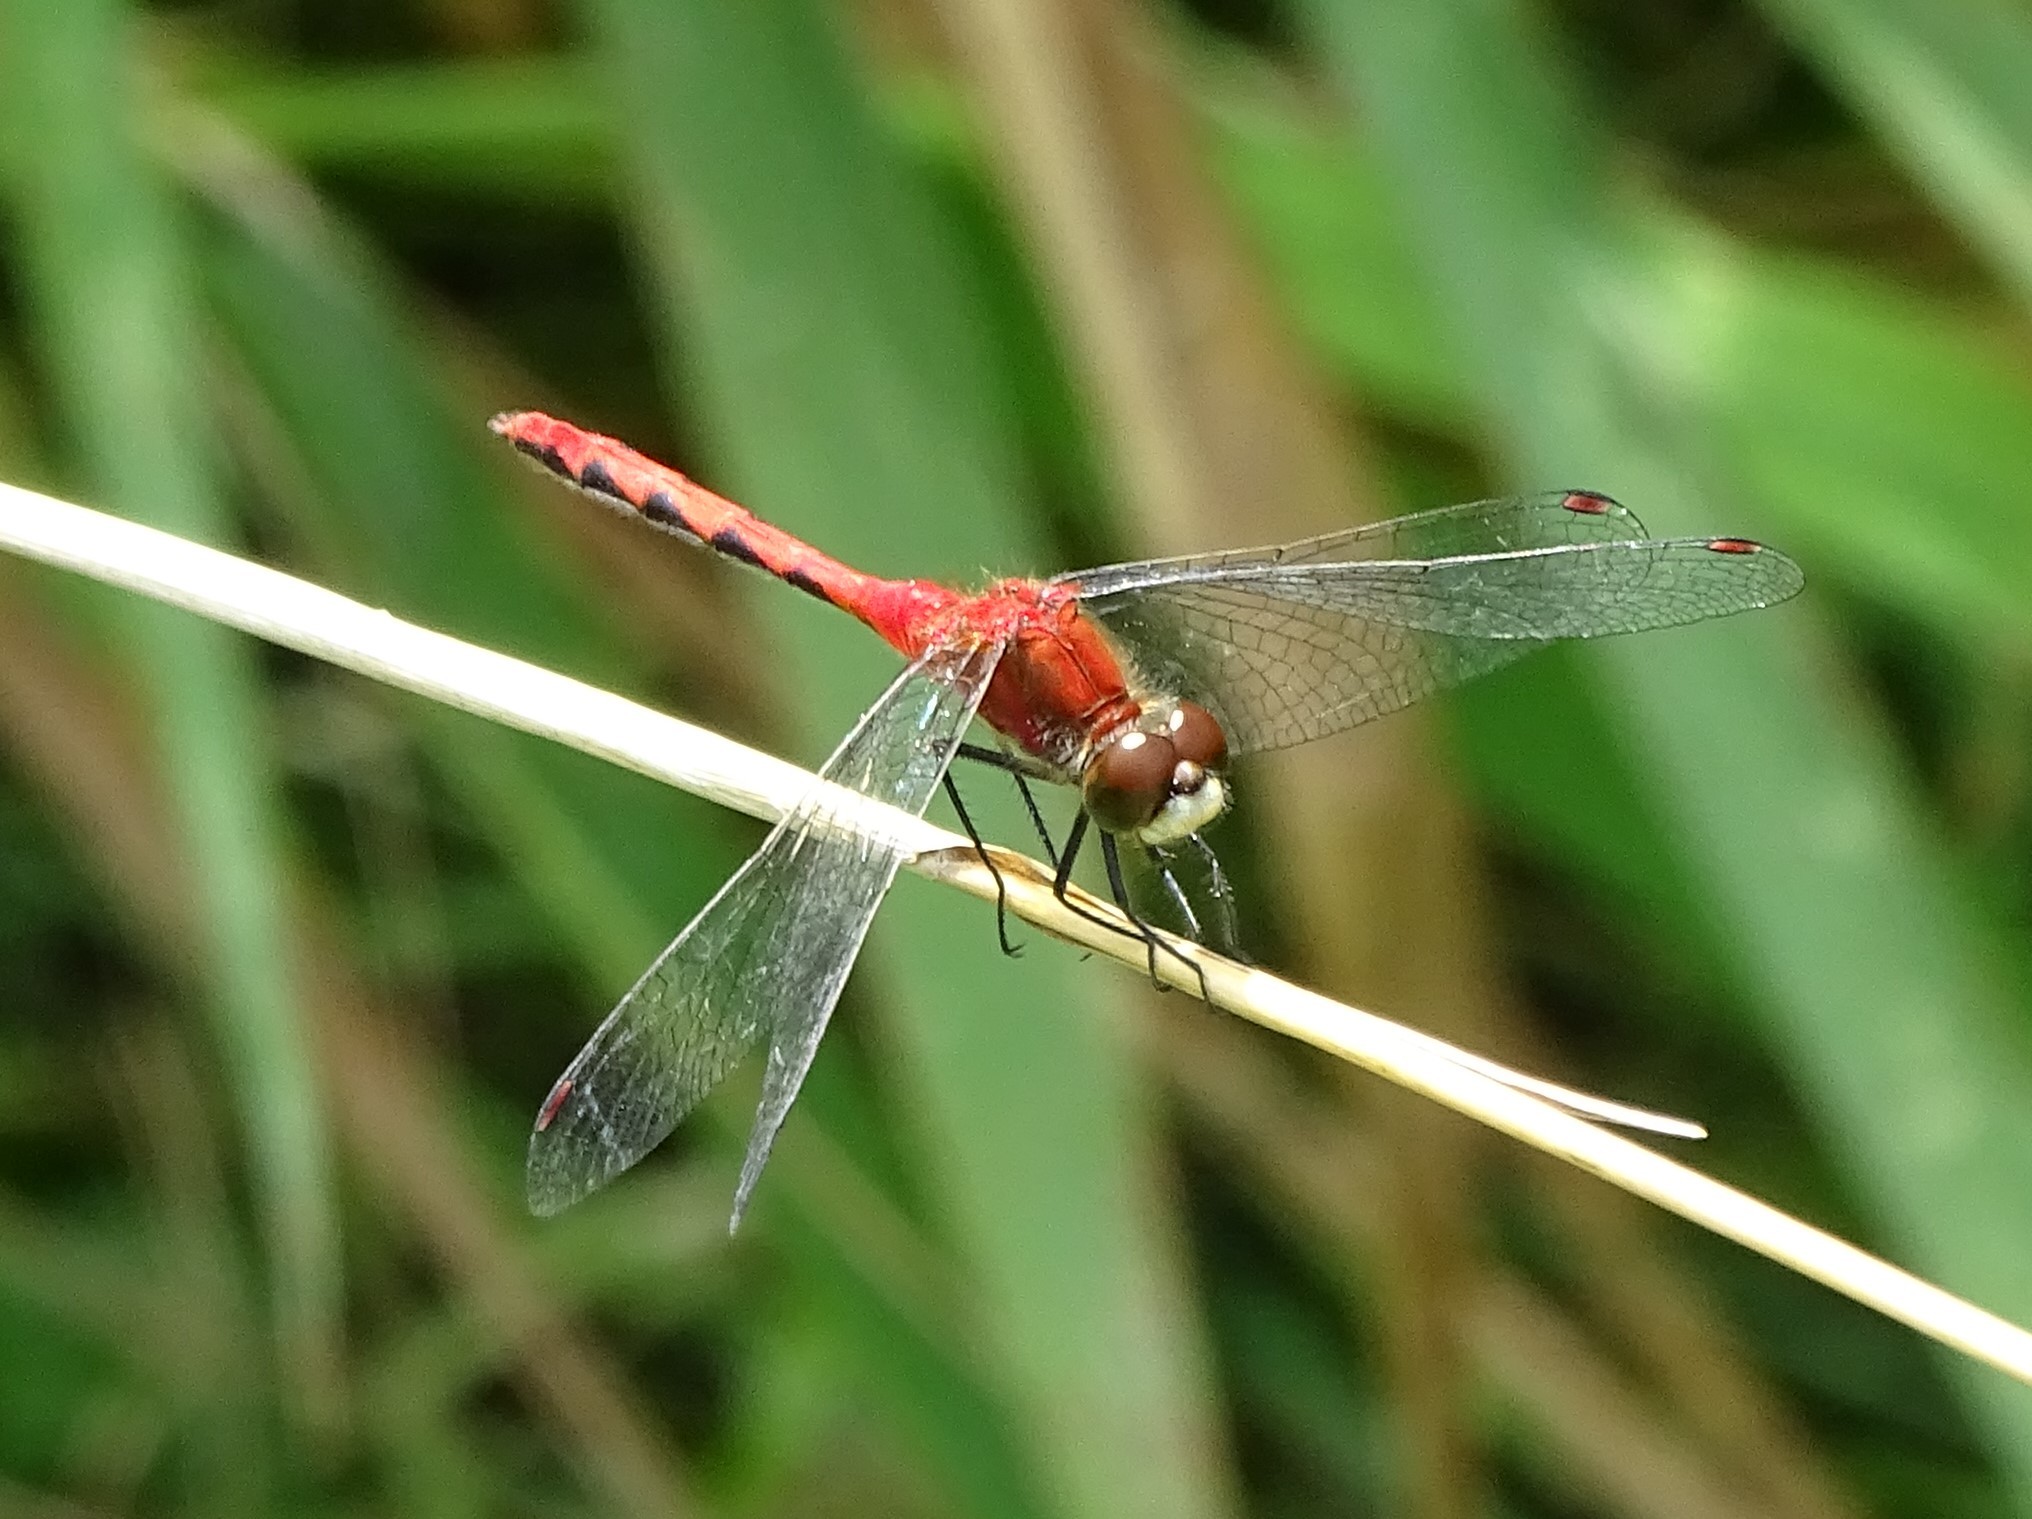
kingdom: Animalia
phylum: Arthropoda
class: Insecta
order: Odonata
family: Libellulidae
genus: Sympetrum
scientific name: Sympetrum obtrusum
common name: White-faced meadowhawk
